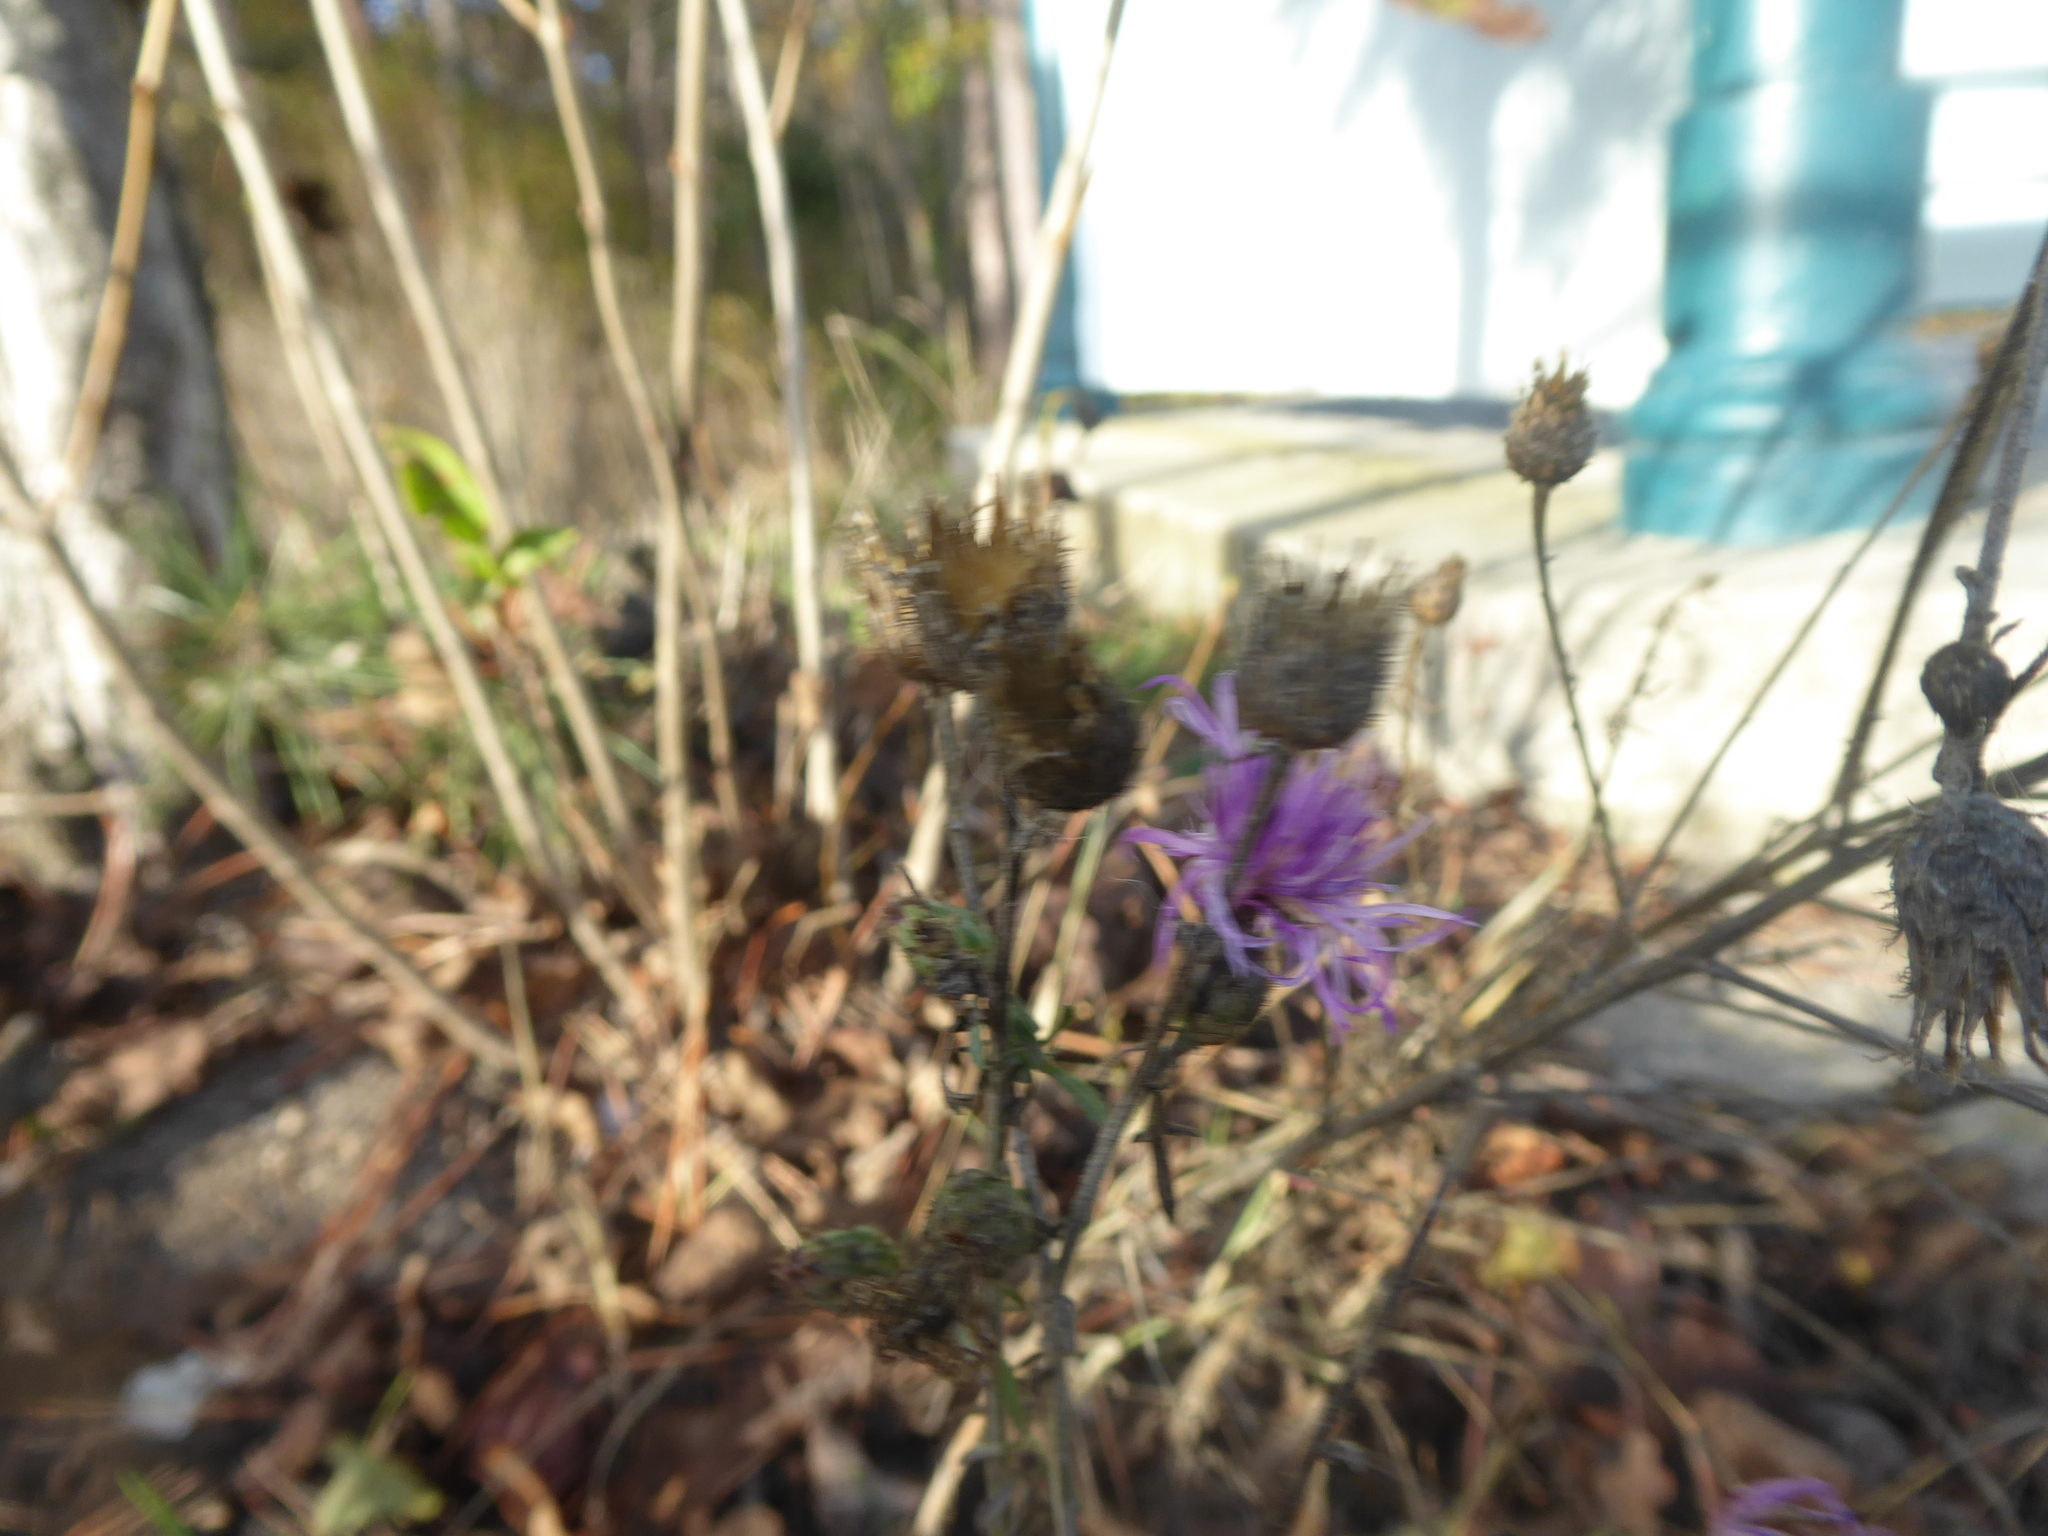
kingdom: Plantae
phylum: Tracheophyta
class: Magnoliopsida
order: Asterales
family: Asteraceae
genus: Centaurea
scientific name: Centaurea stoebe
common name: Spotted knapweed
